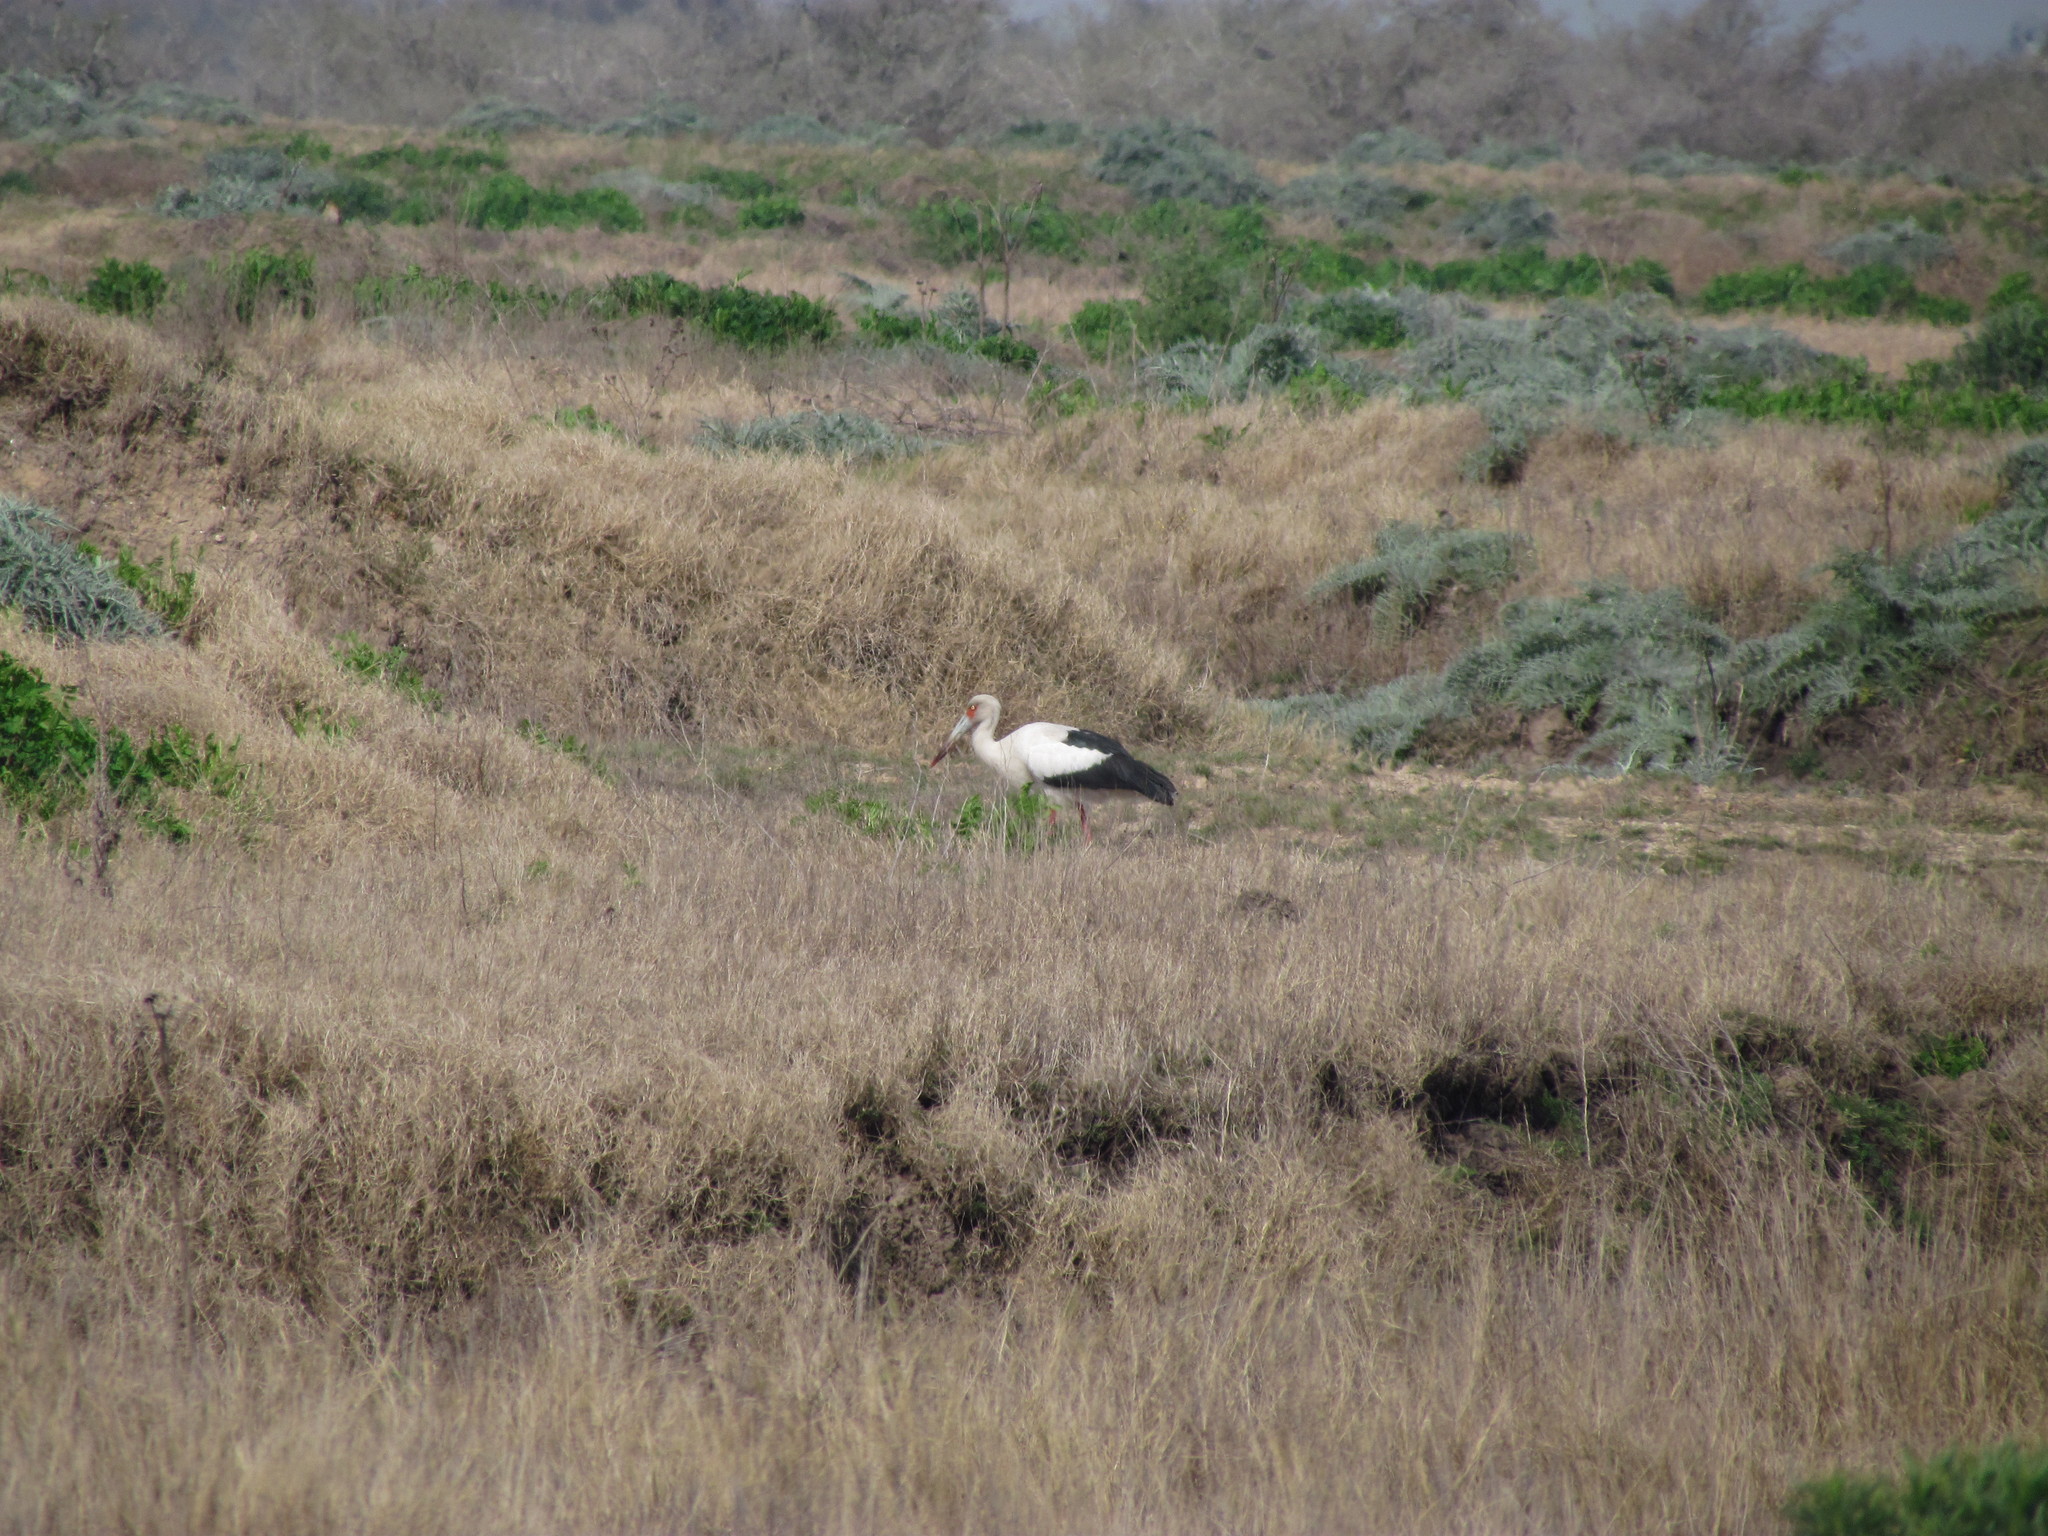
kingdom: Animalia
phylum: Chordata
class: Aves
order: Ciconiiformes
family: Ciconiidae
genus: Ciconia
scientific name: Ciconia maguari
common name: Maguari stork
